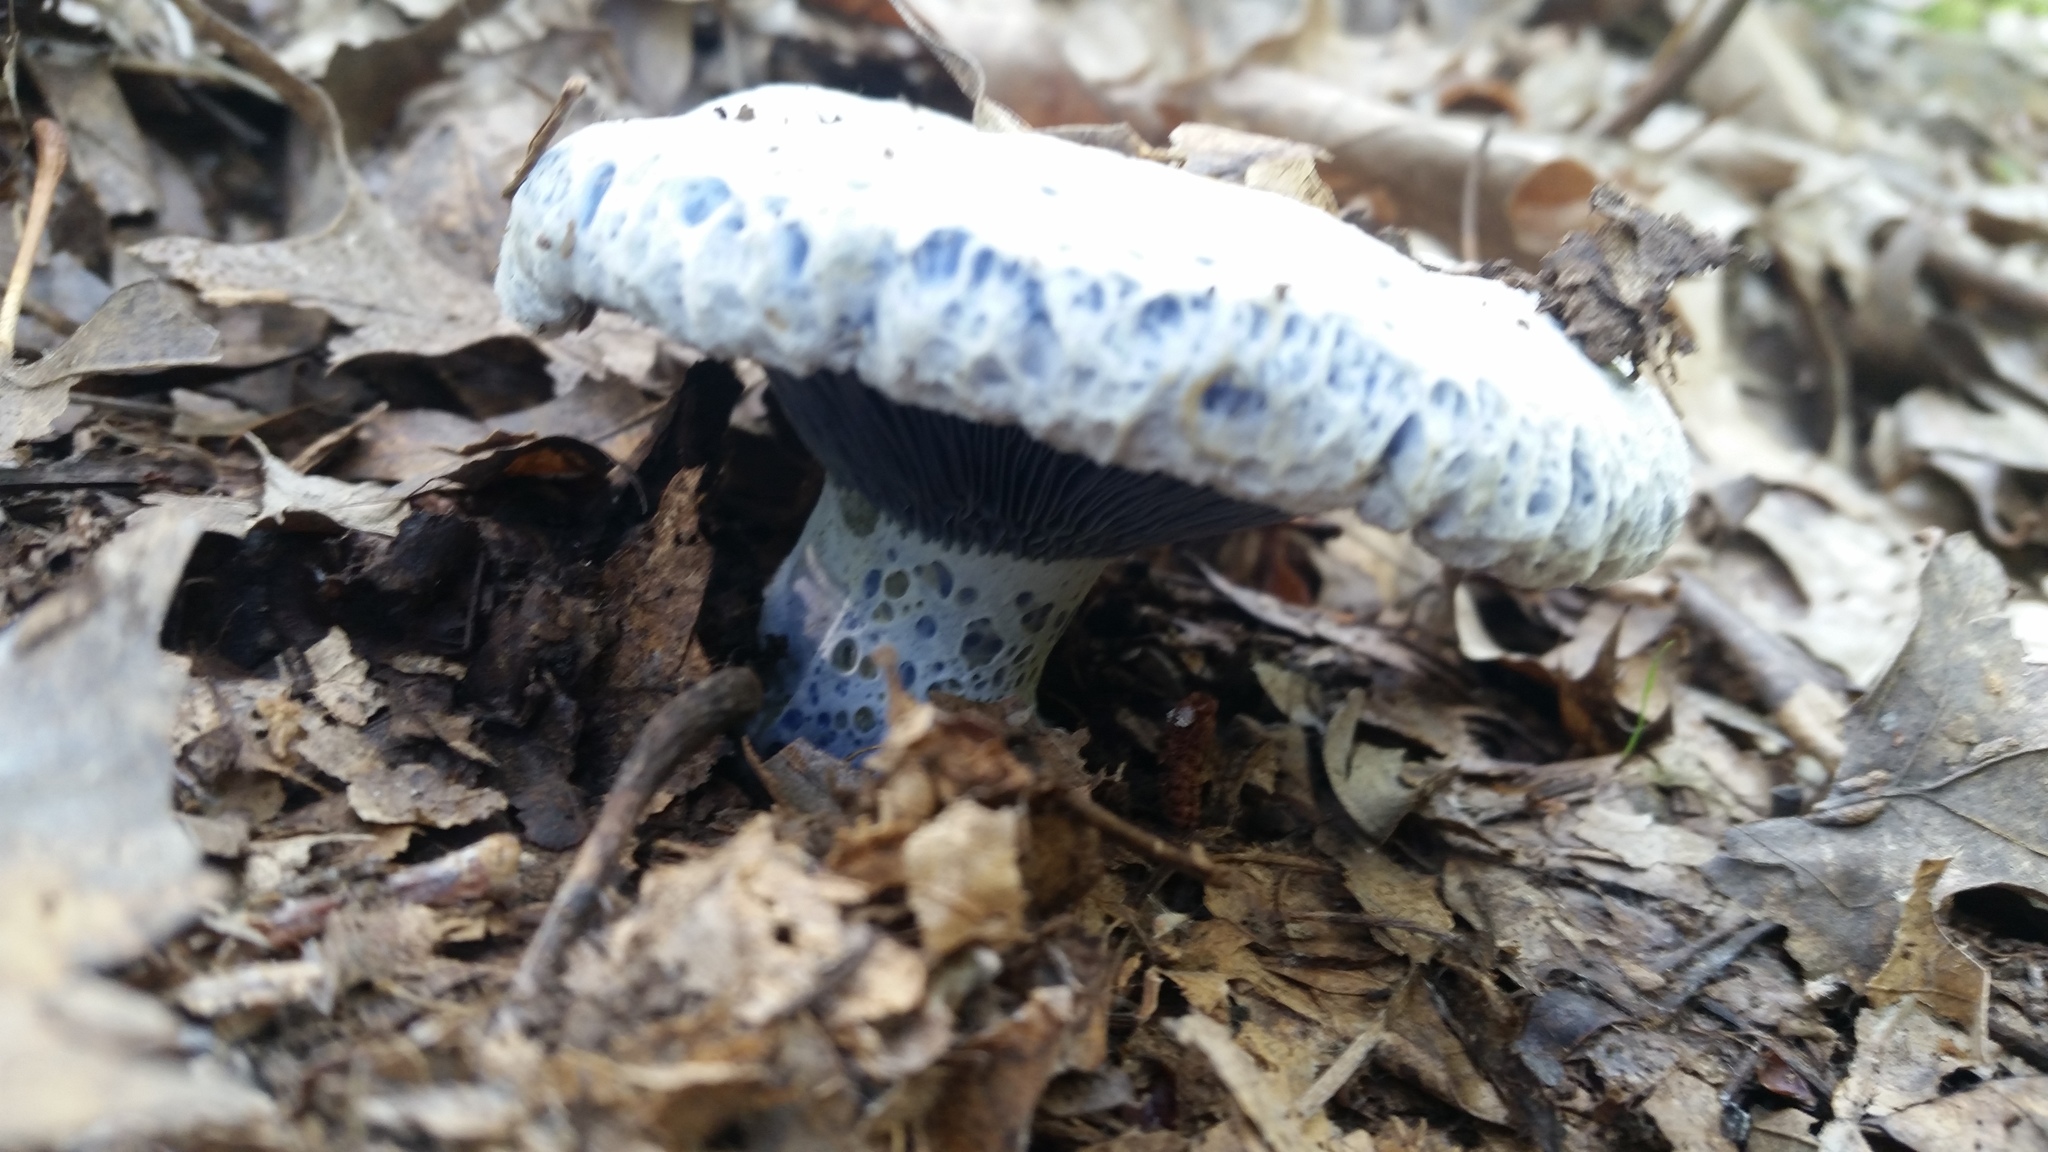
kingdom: Fungi
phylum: Basidiomycota
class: Agaricomycetes
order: Russulales
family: Russulaceae
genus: Lactarius
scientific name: Lactarius indigo
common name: Indigo milk cap
